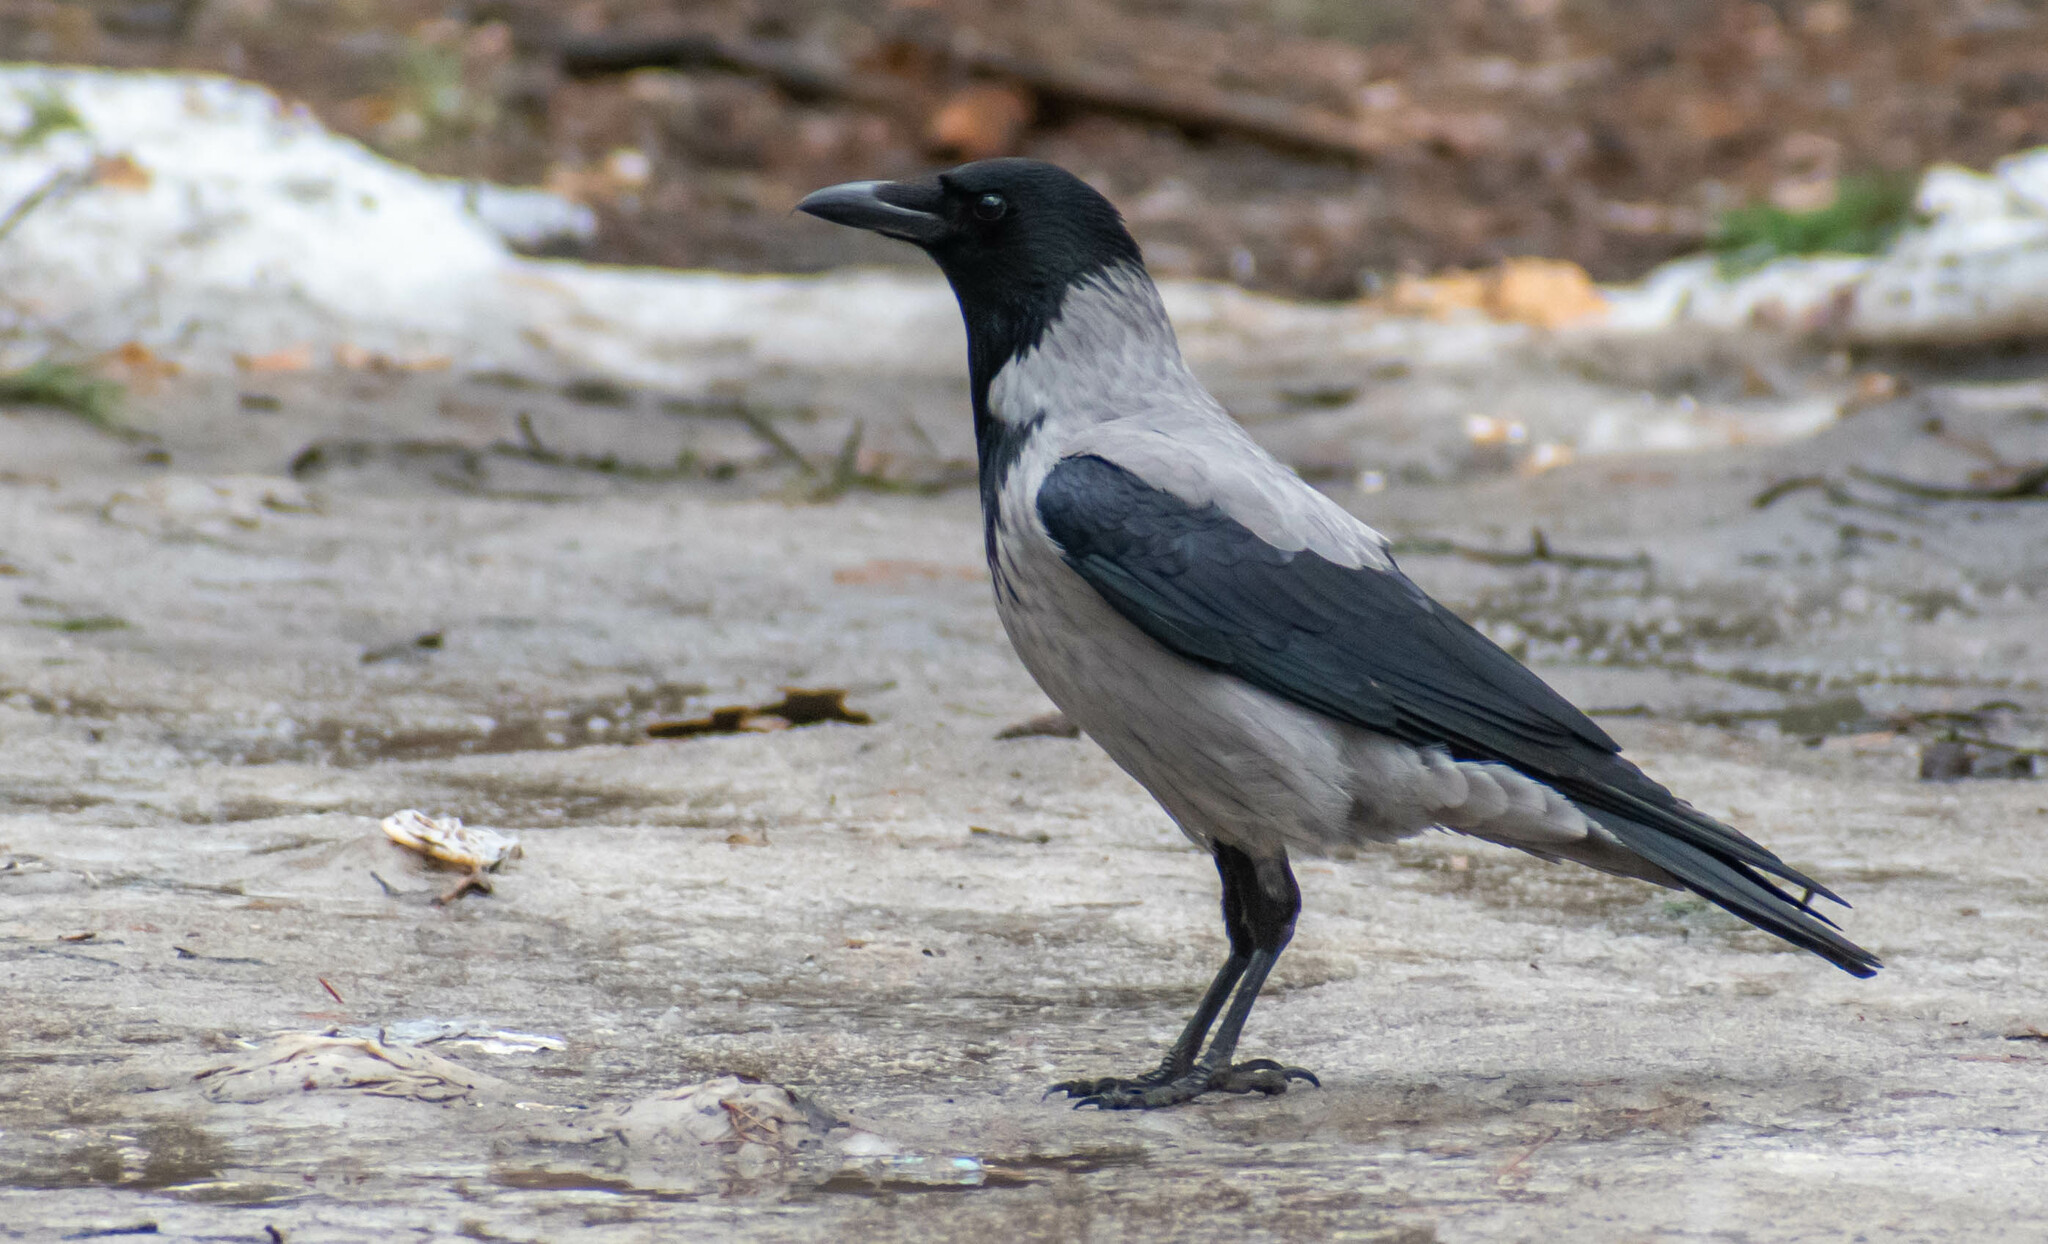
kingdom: Animalia
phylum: Chordata
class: Aves
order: Passeriformes
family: Corvidae
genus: Corvus
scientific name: Corvus cornix
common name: Hooded crow
